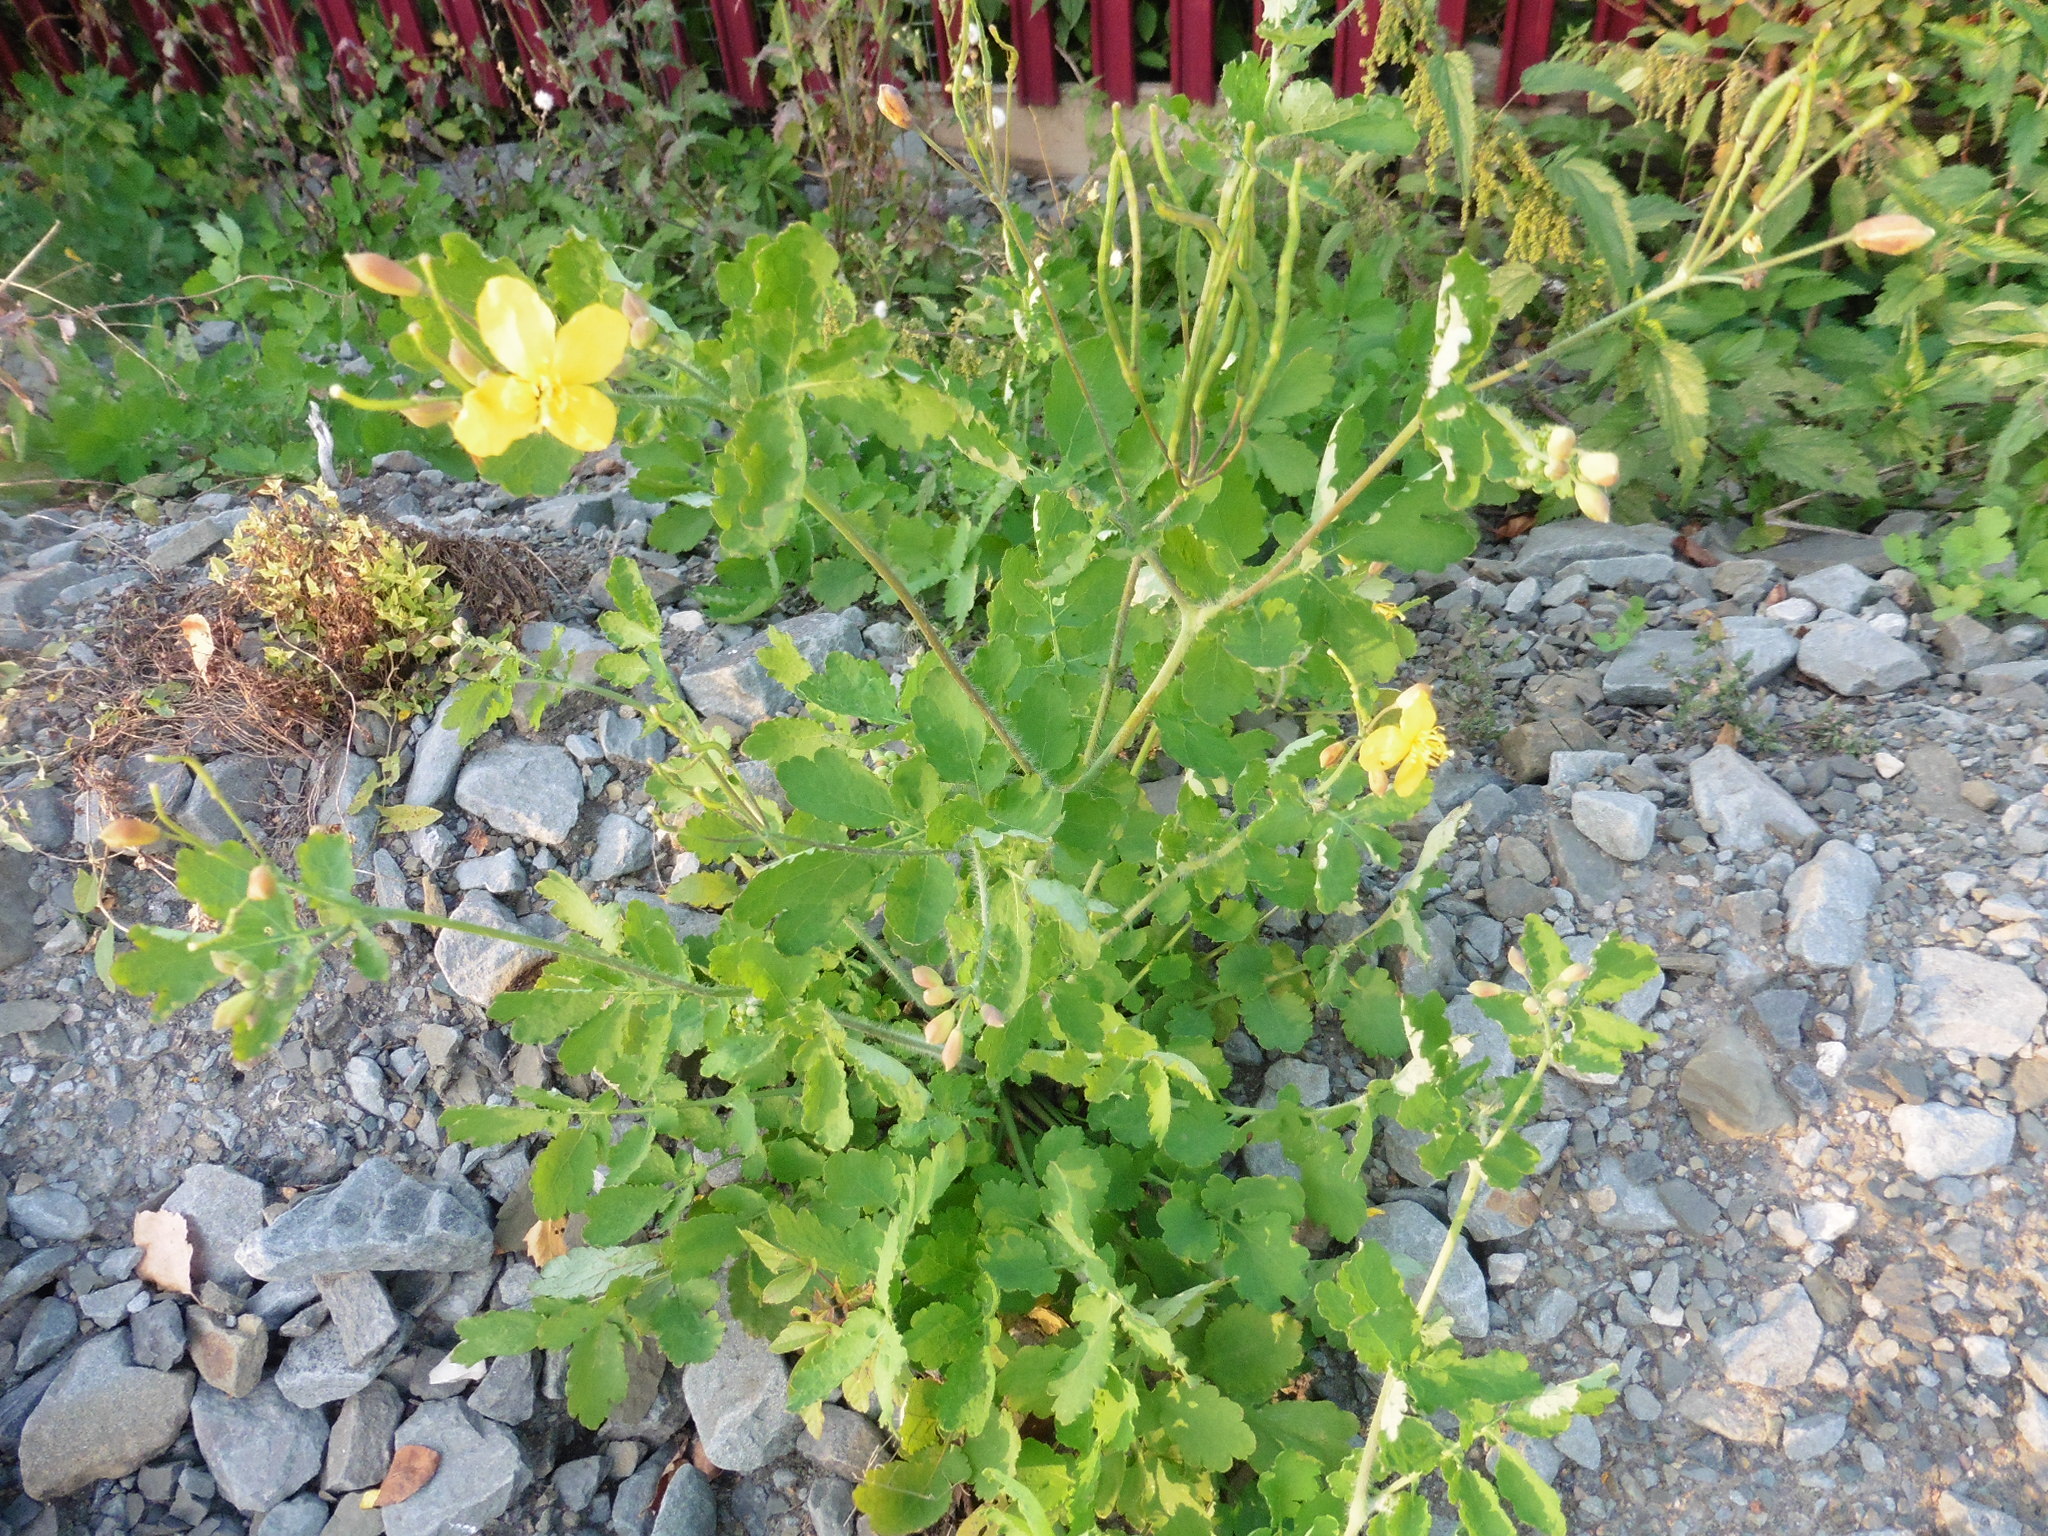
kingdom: Plantae
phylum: Tracheophyta
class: Magnoliopsida
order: Ranunculales
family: Papaveraceae
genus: Chelidonium
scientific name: Chelidonium majus
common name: Greater celandine
